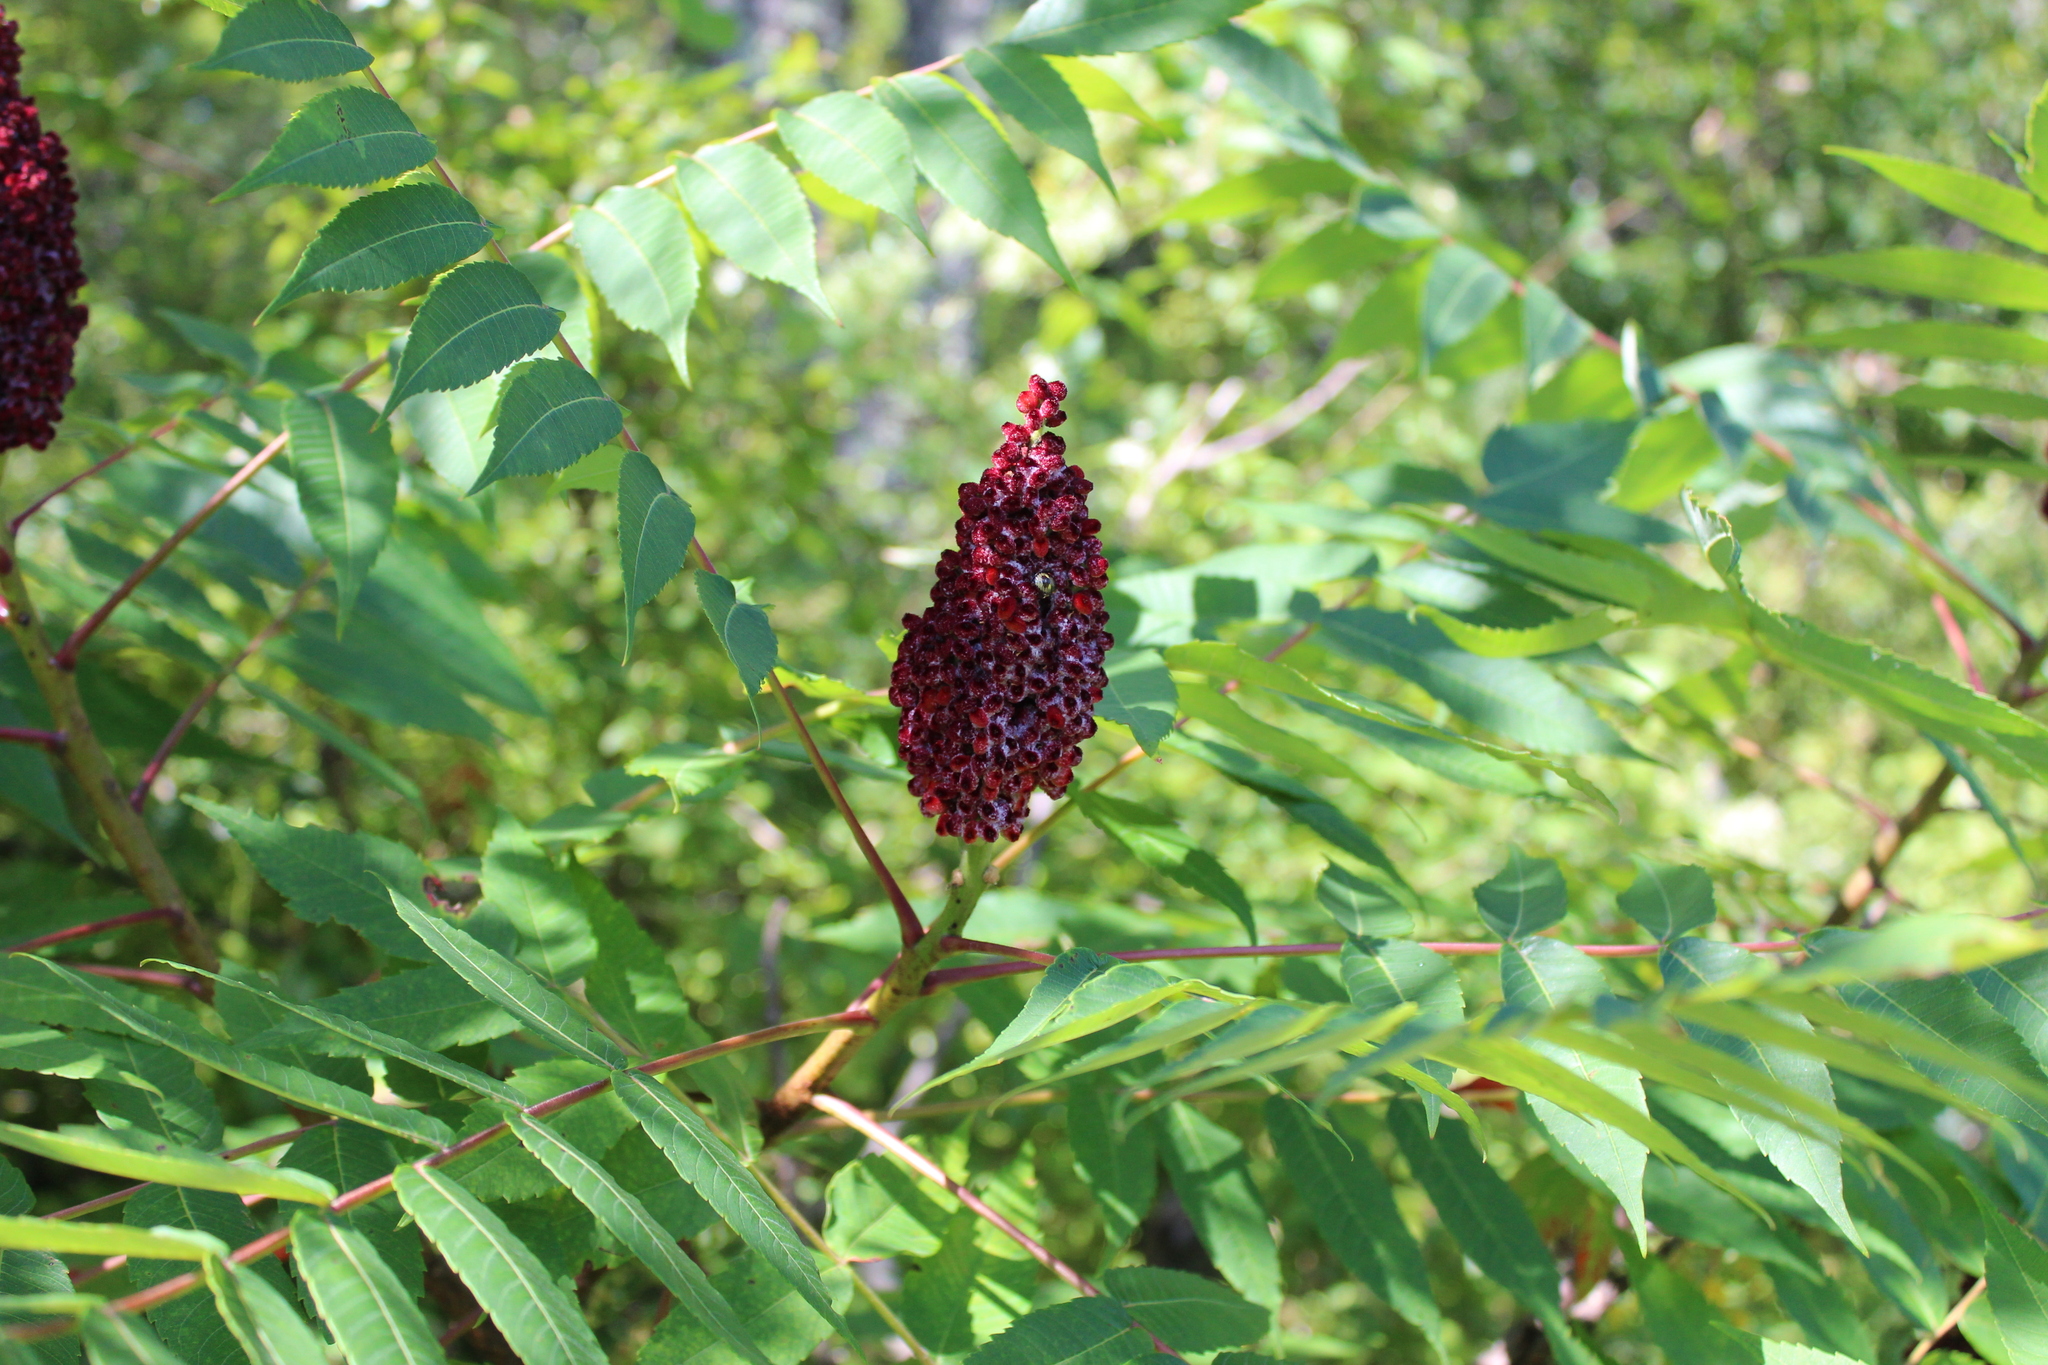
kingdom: Plantae
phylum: Tracheophyta
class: Magnoliopsida
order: Sapindales
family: Anacardiaceae
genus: Rhus
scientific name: Rhus glabra
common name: Scarlet sumac
